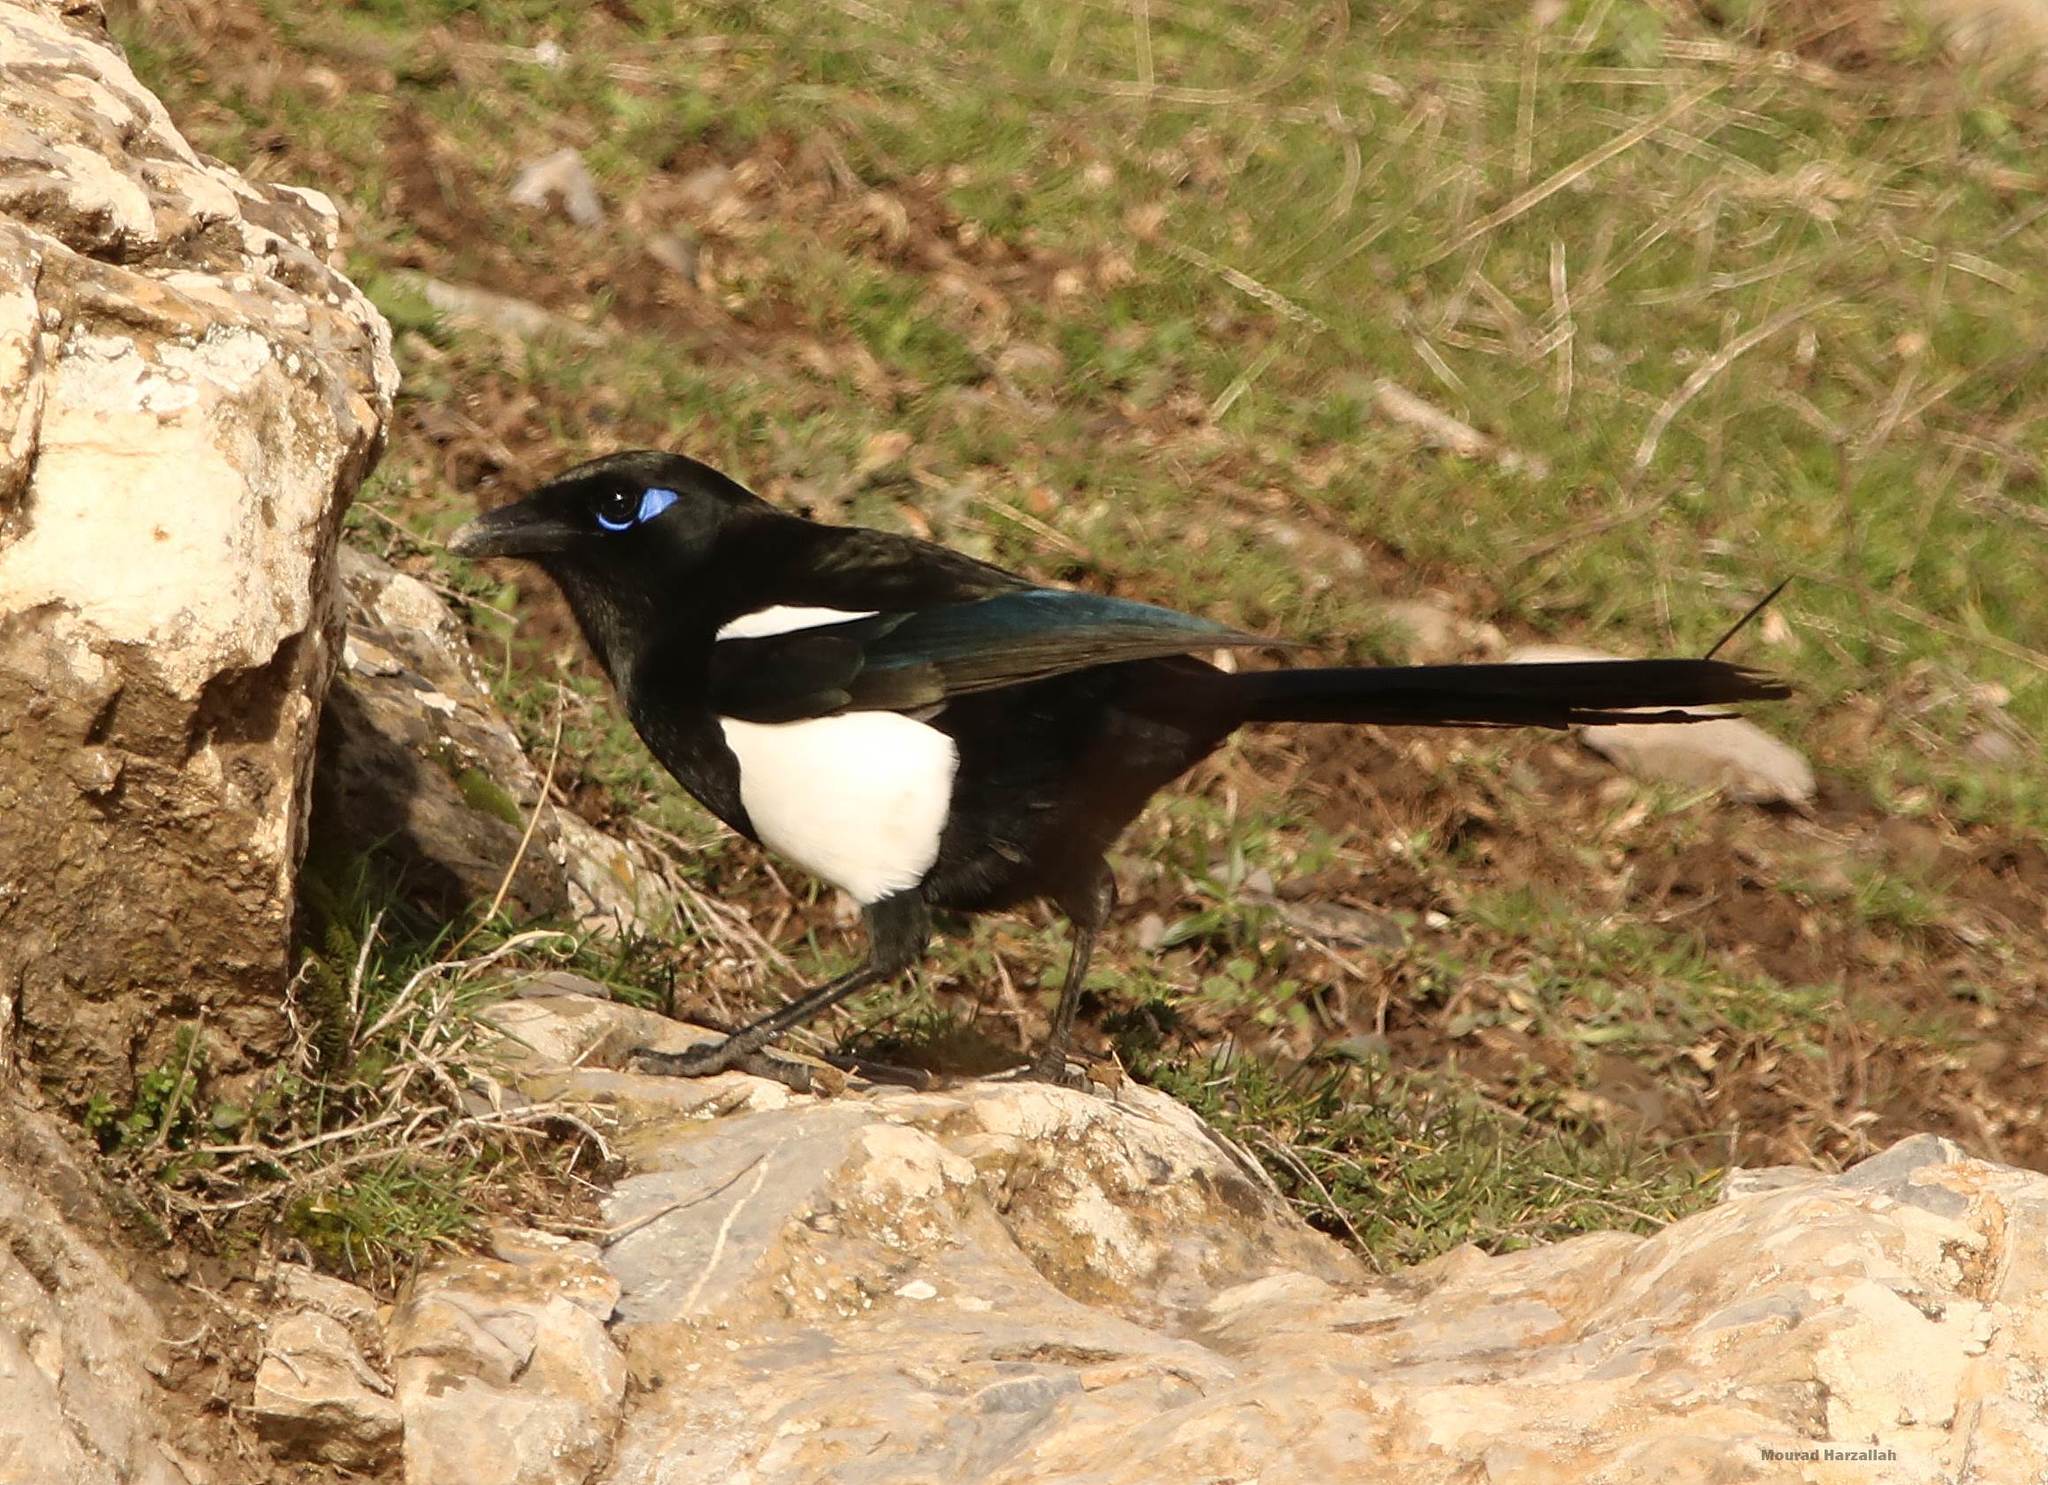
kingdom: Animalia
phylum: Chordata
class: Aves
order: Passeriformes
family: Corvidae
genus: Pica
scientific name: Pica mauritanica
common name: Maghreb magpie
